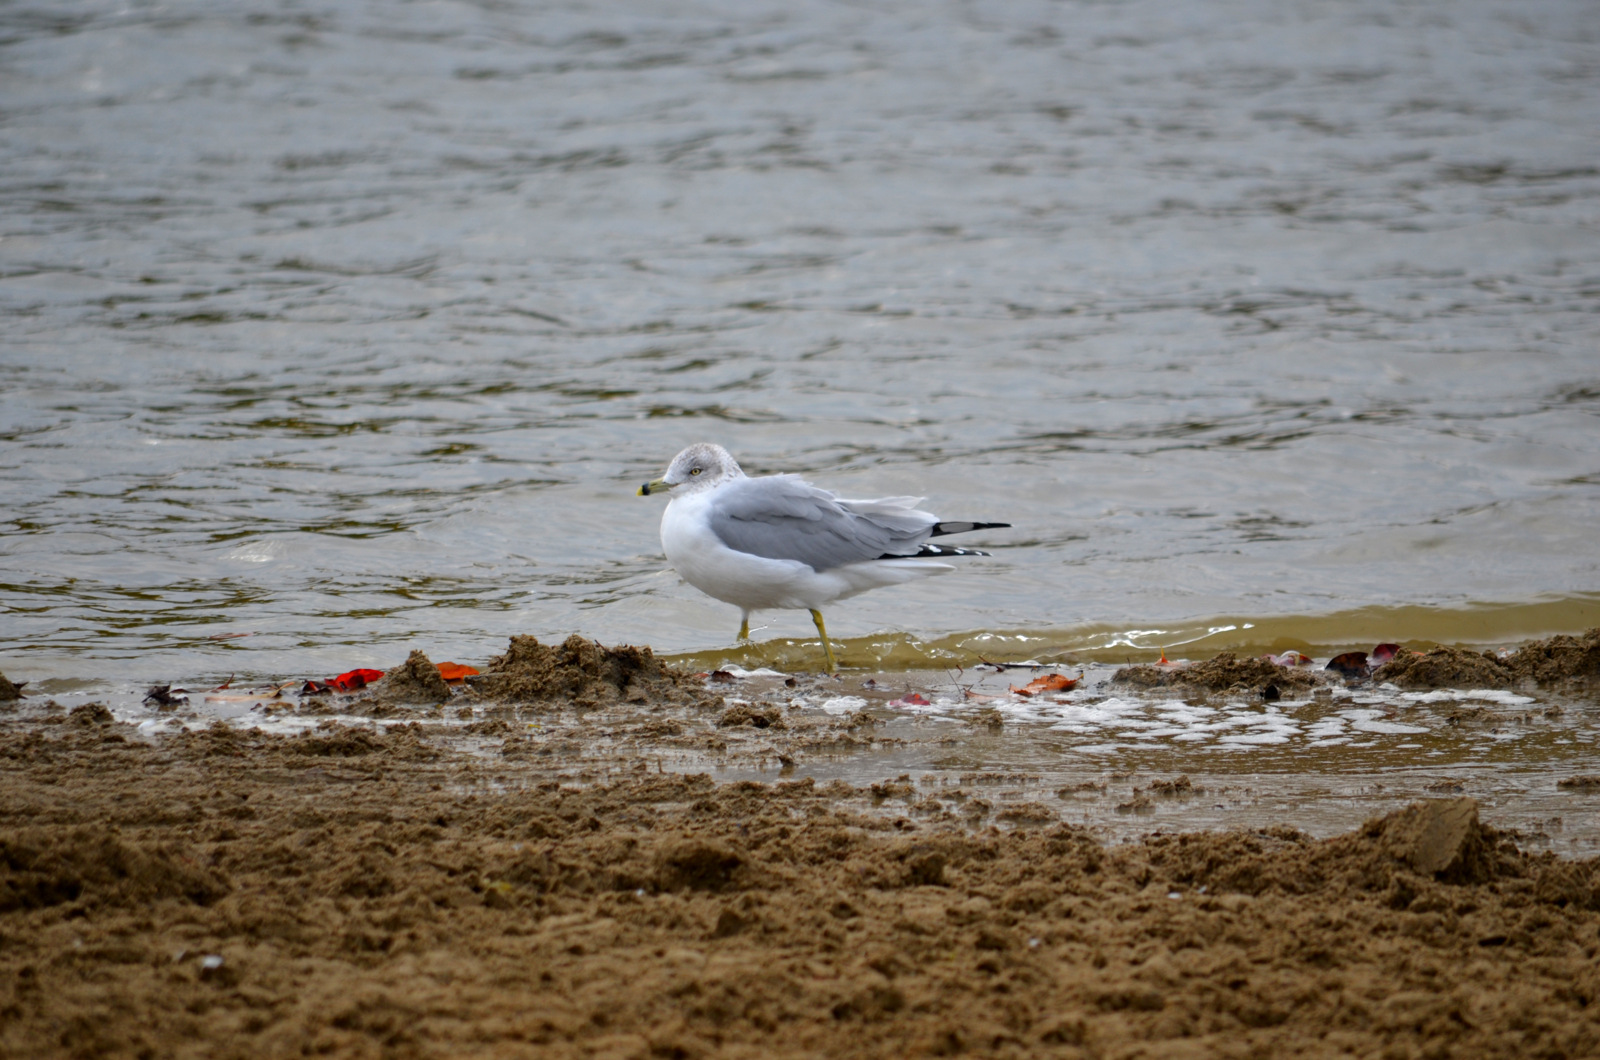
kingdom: Animalia
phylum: Chordata
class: Aves
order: Charadriiformes
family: Laridae
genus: Larus
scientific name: Larus delawarensis
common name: Ring-billed gull
